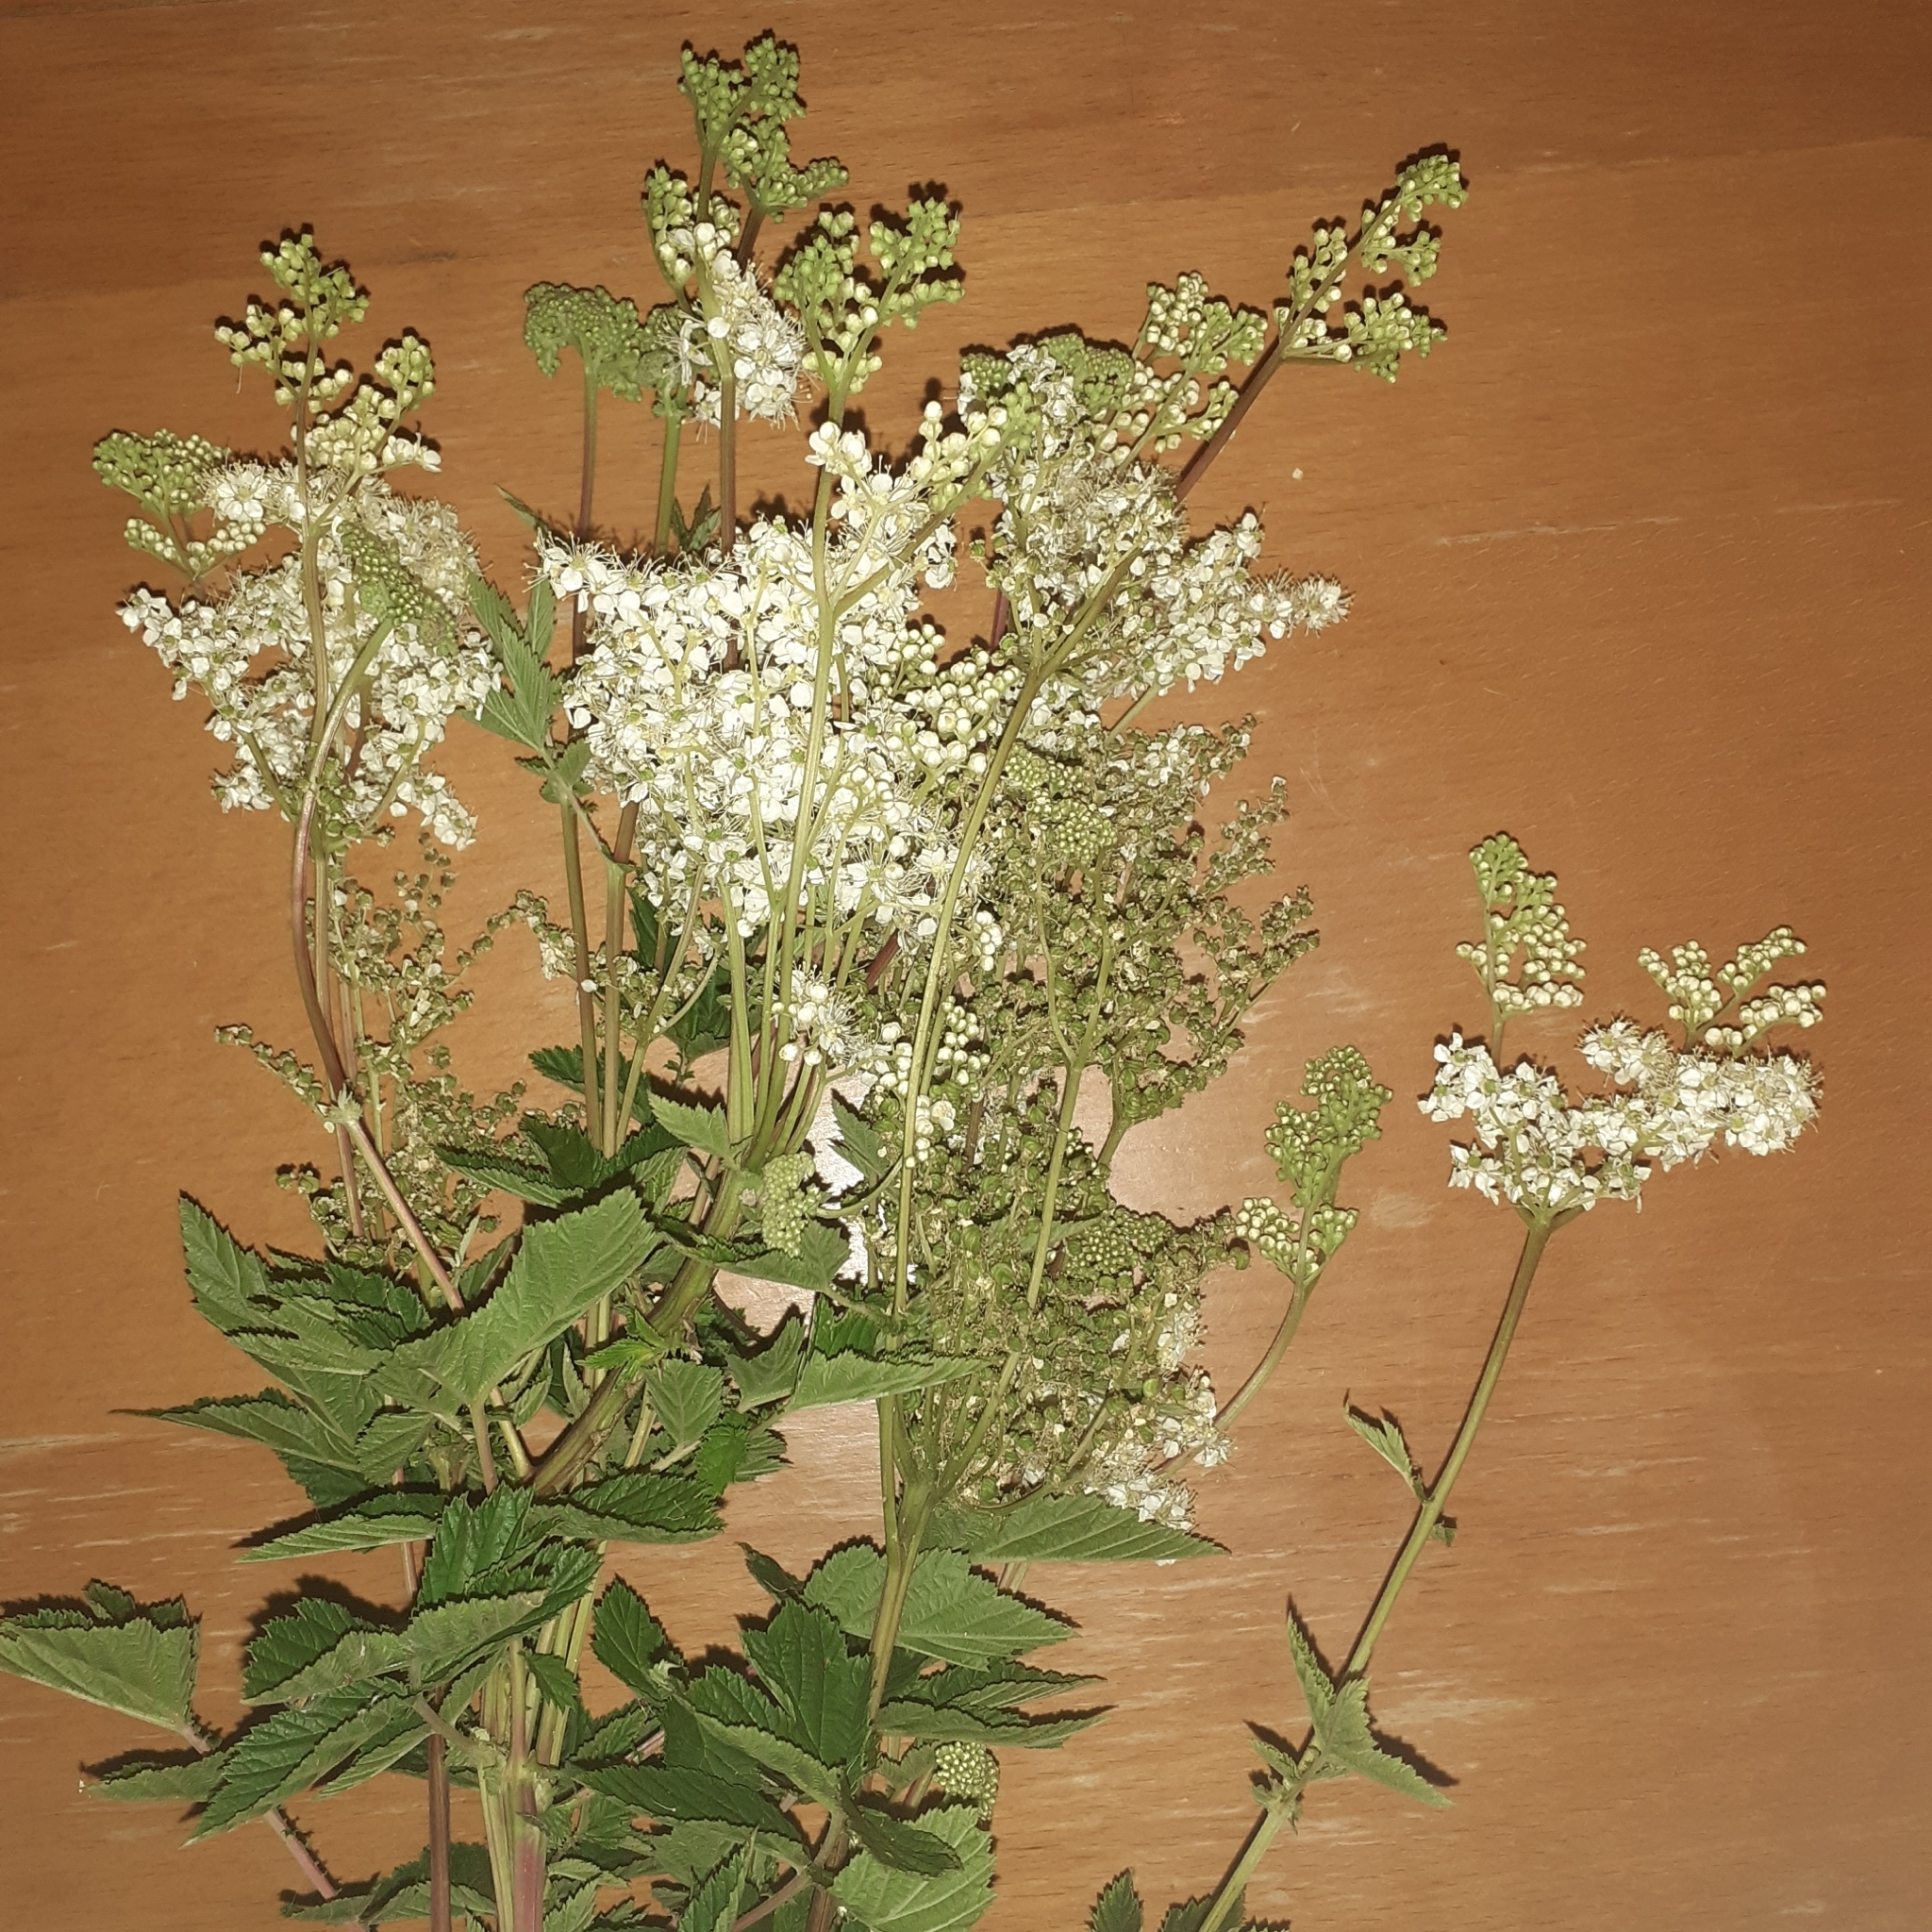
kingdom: Plantae
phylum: Tracheophyta
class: Magnoliopsida
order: Rosales
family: Rosaceae
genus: Filipendula
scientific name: Filipendula ulmaria
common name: Meadowsweet
